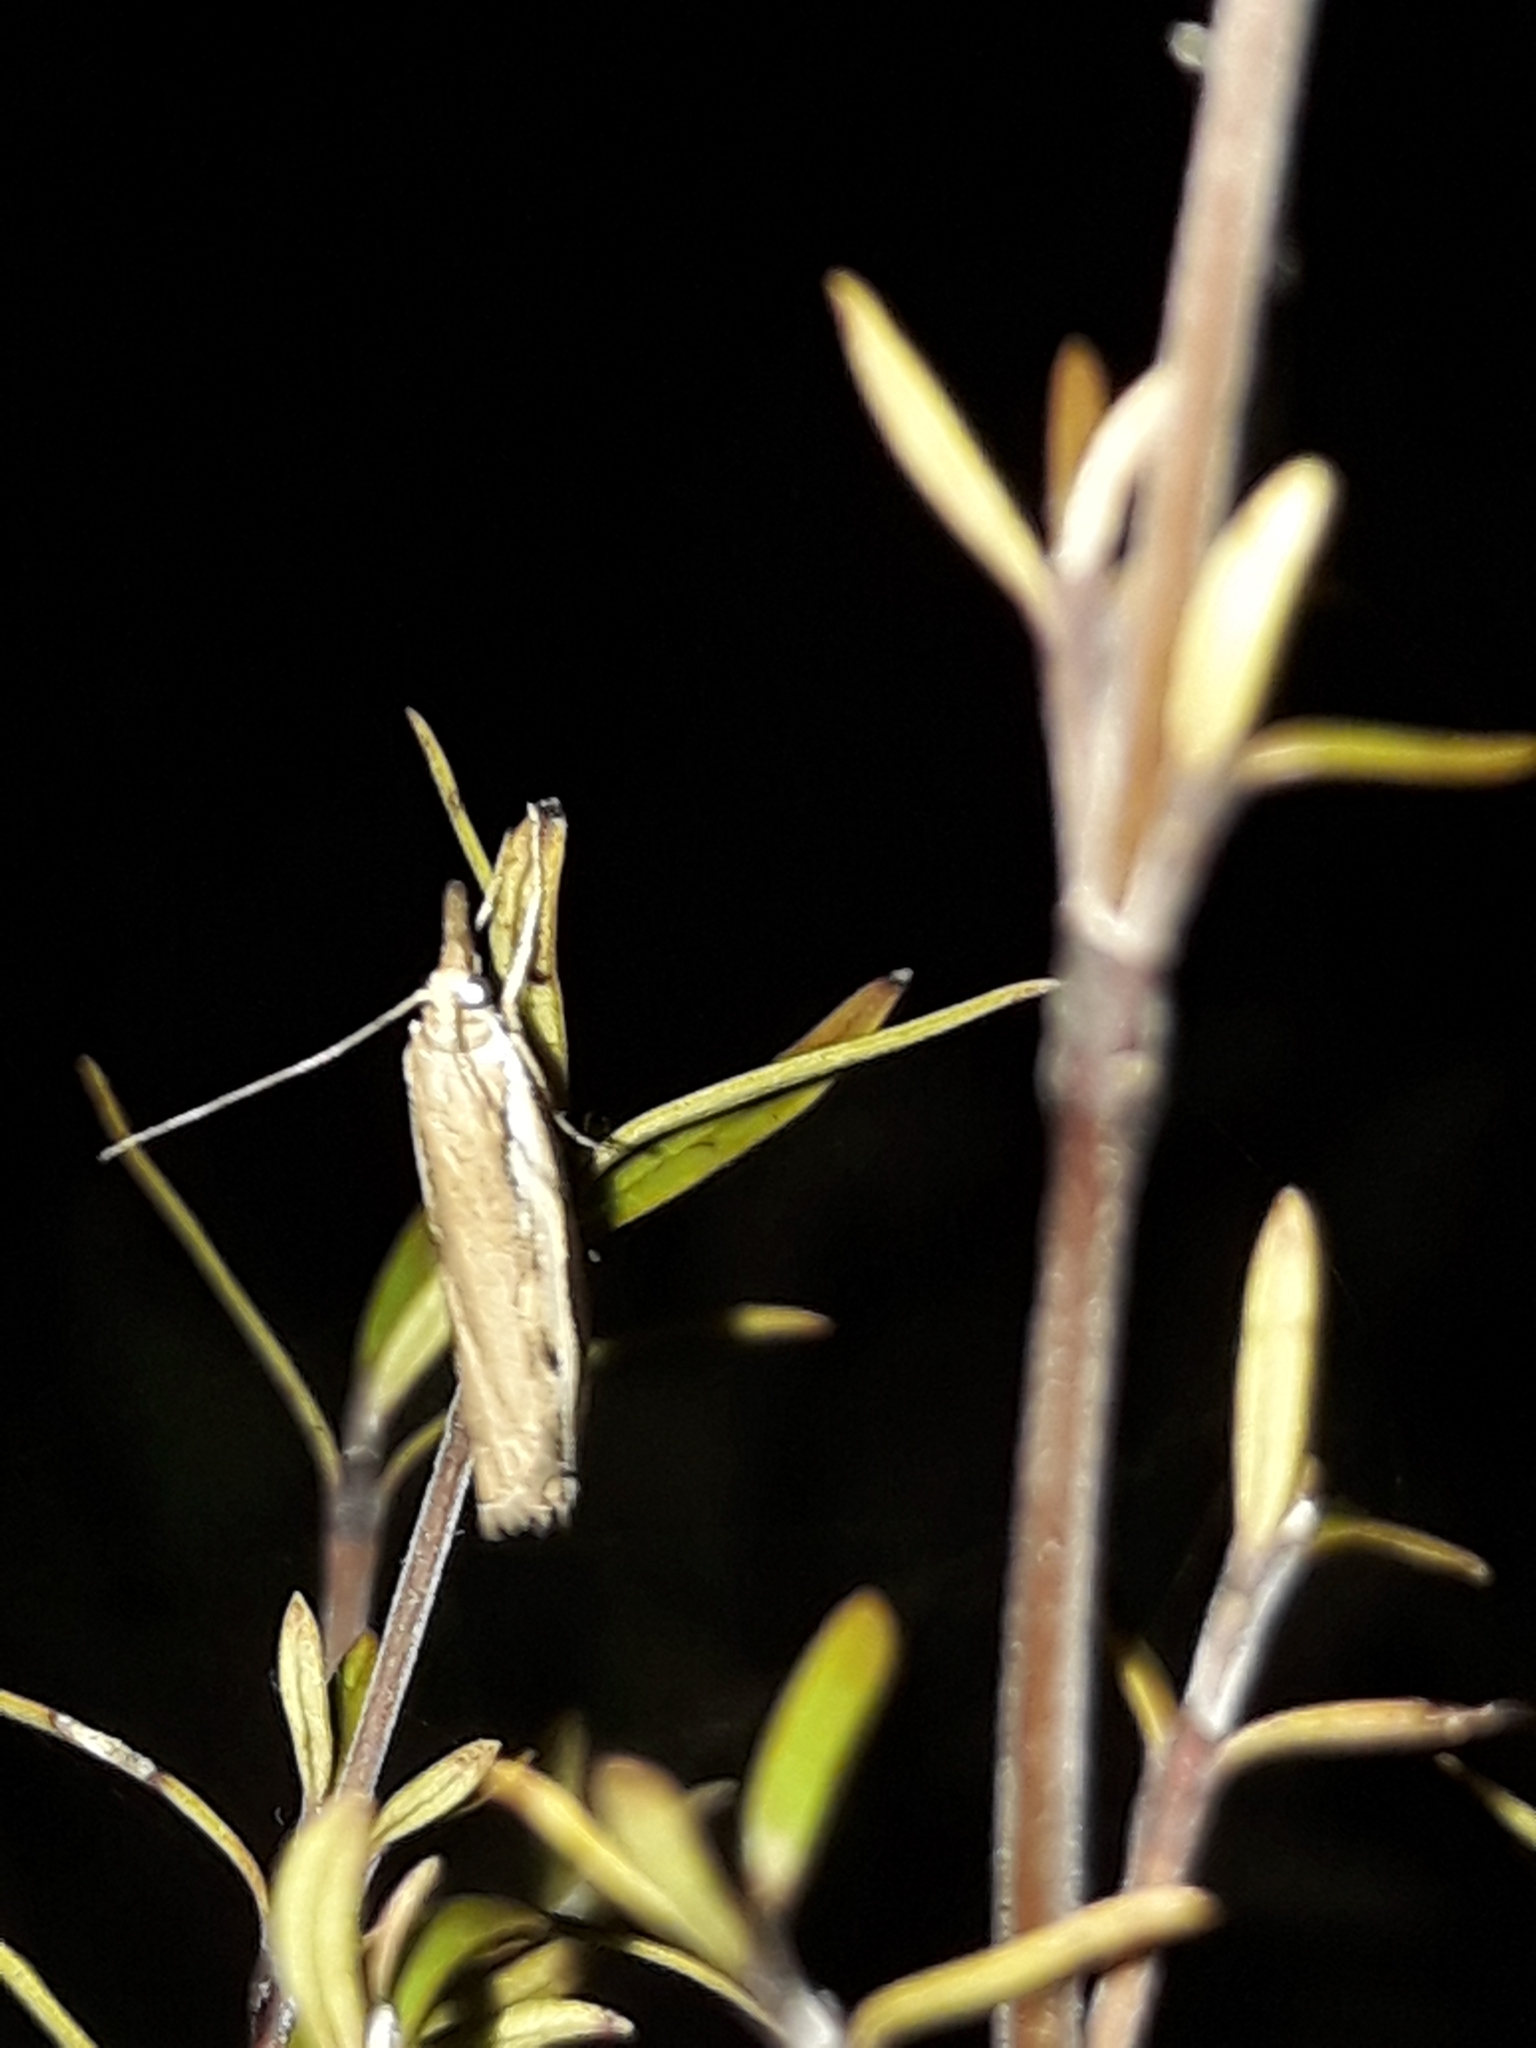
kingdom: Animalia
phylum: Arthropoda
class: Insecta
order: Lepidoptera
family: Crambidae
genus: Orocrambus
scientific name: Orocrambus flexuosellus
